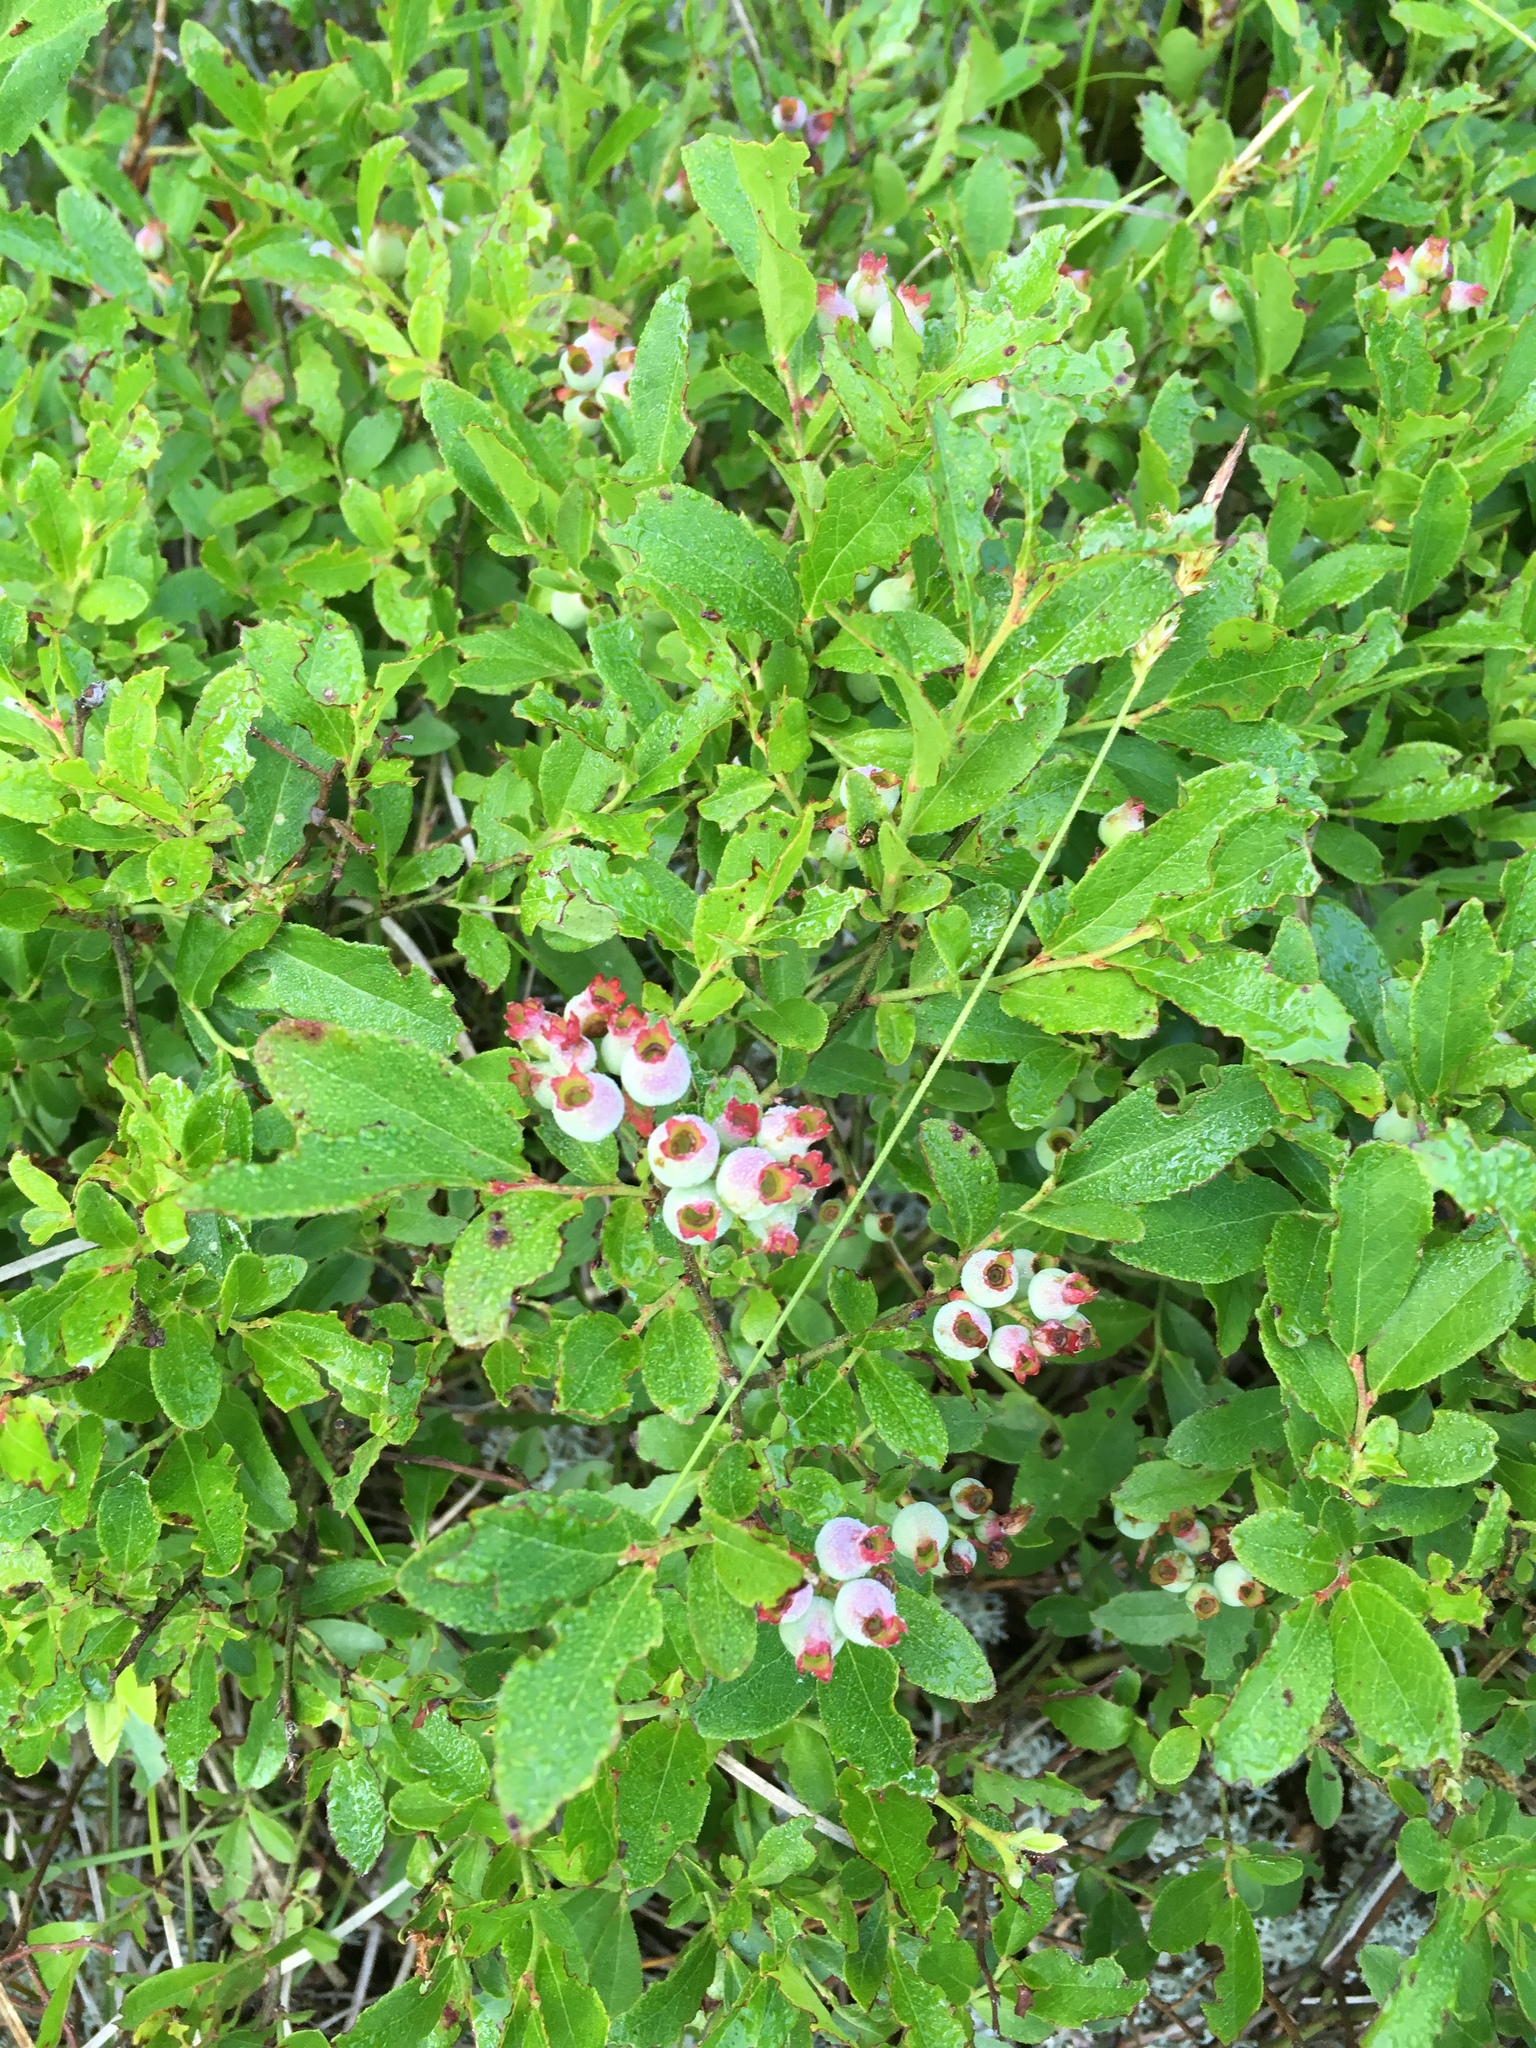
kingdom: Plantae
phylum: Tracheophyta
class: Magnoliopsida
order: Ericales
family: Ericaceae
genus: Vaccinium
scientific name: Vaccinium angustifolium
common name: Early lowbush blueberry
